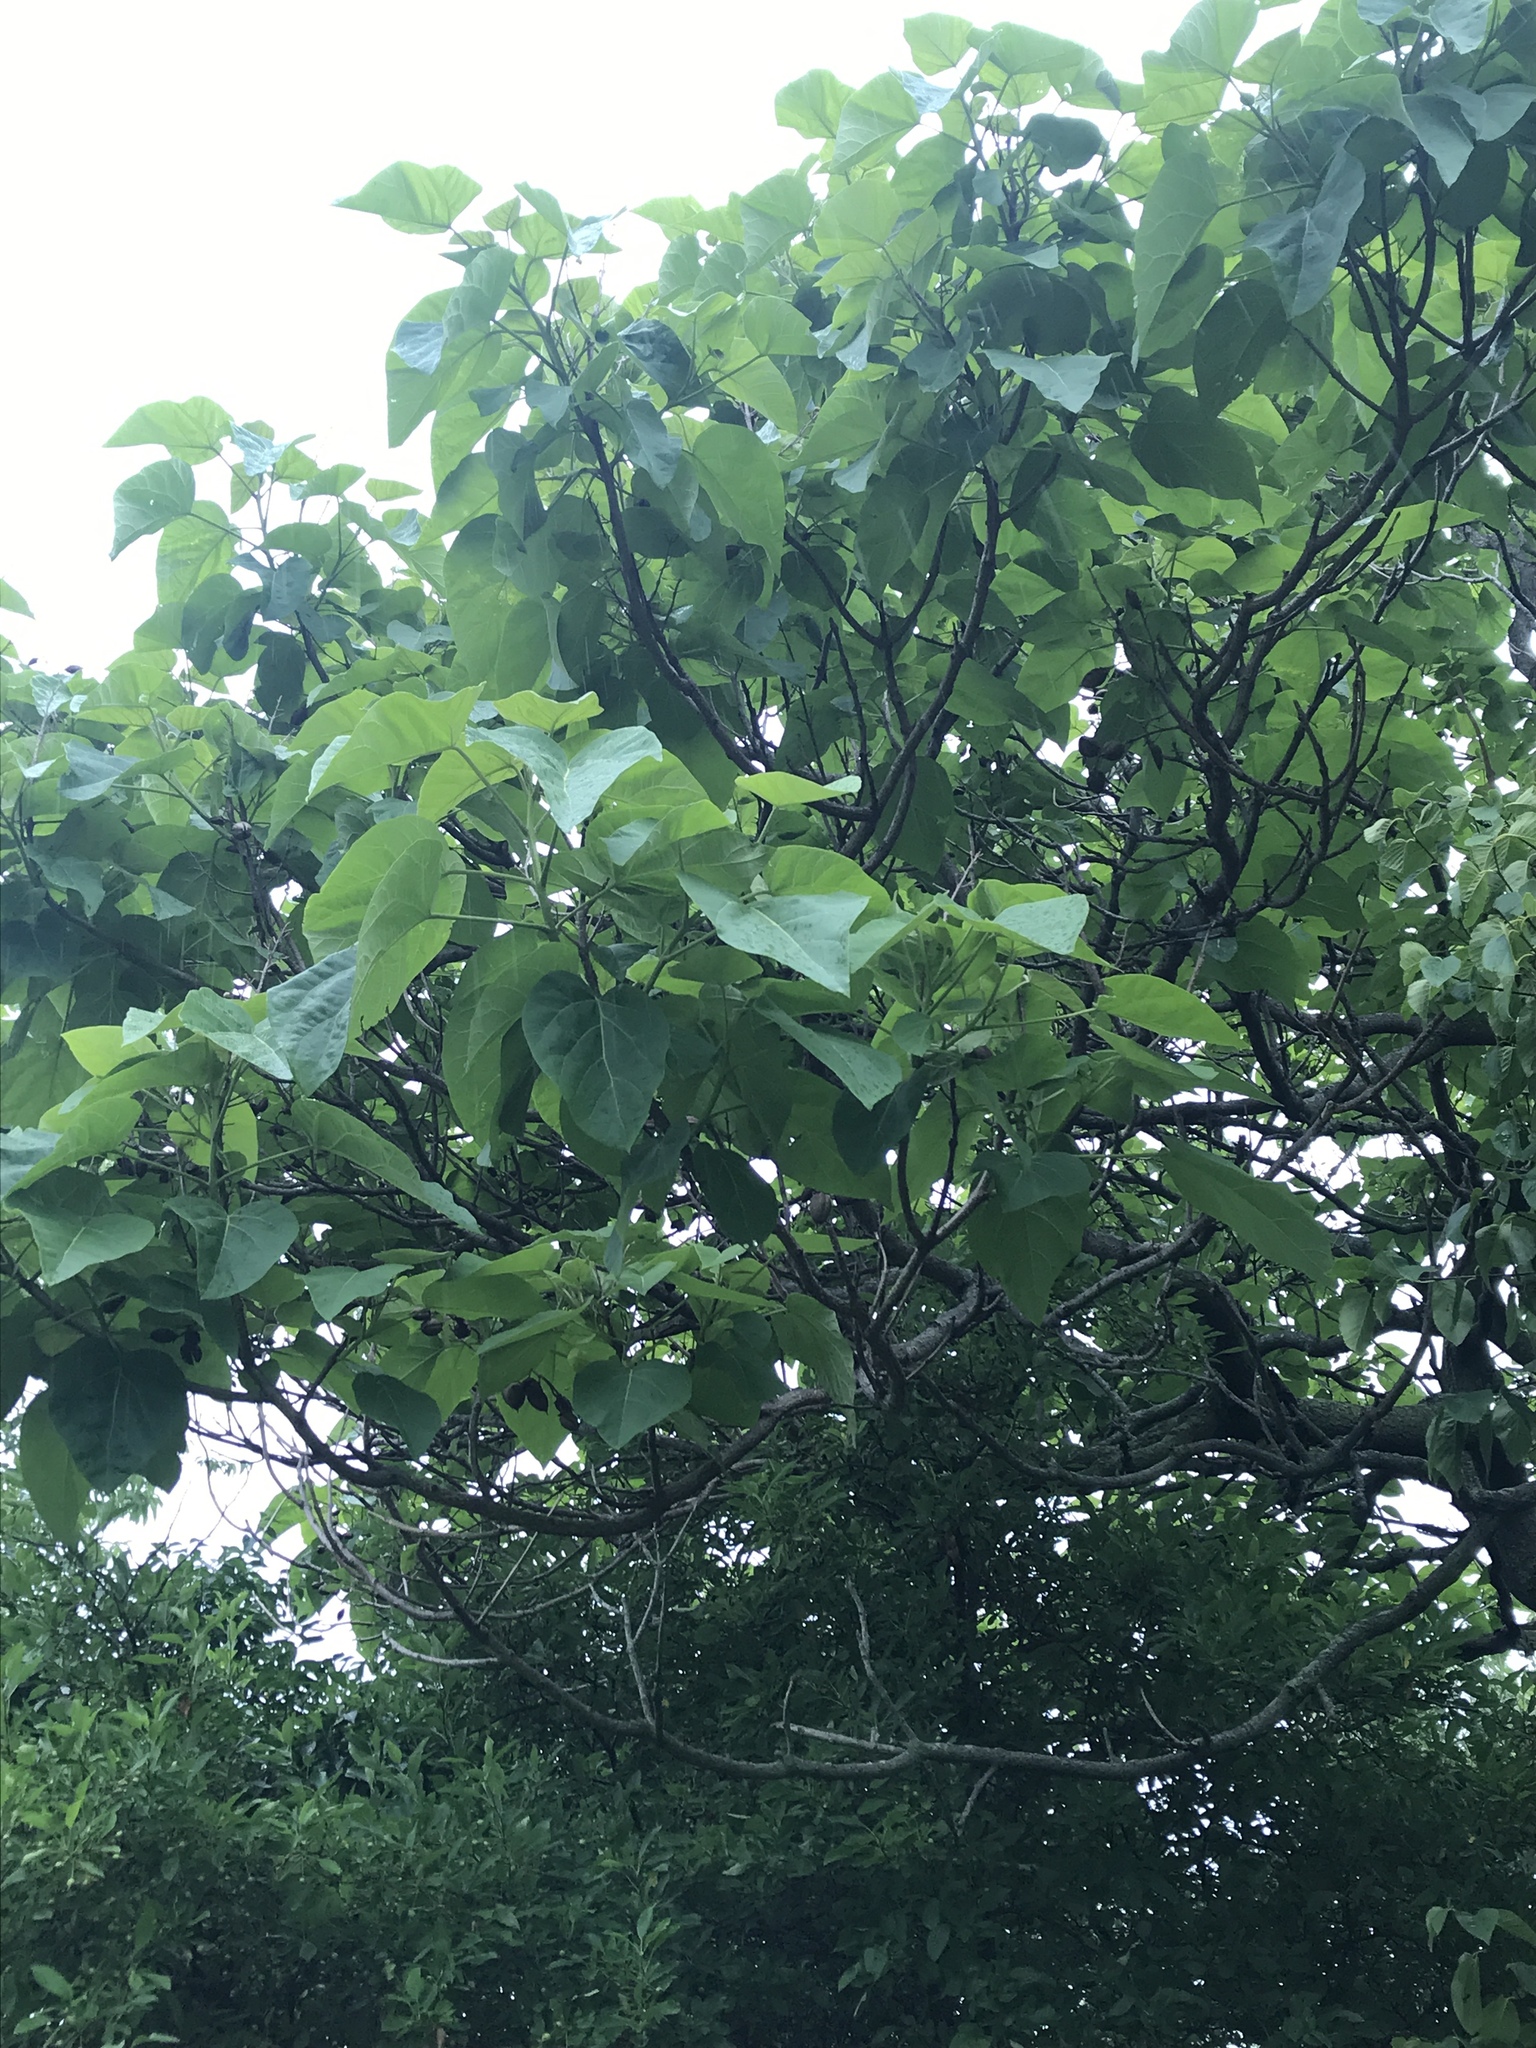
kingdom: Plantae
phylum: Tracheophyta
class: Magnoliopsida
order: Lamiales
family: Paulowniaceae
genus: Paulownia
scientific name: Paulownia tomentosa
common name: Foxglove-tree
